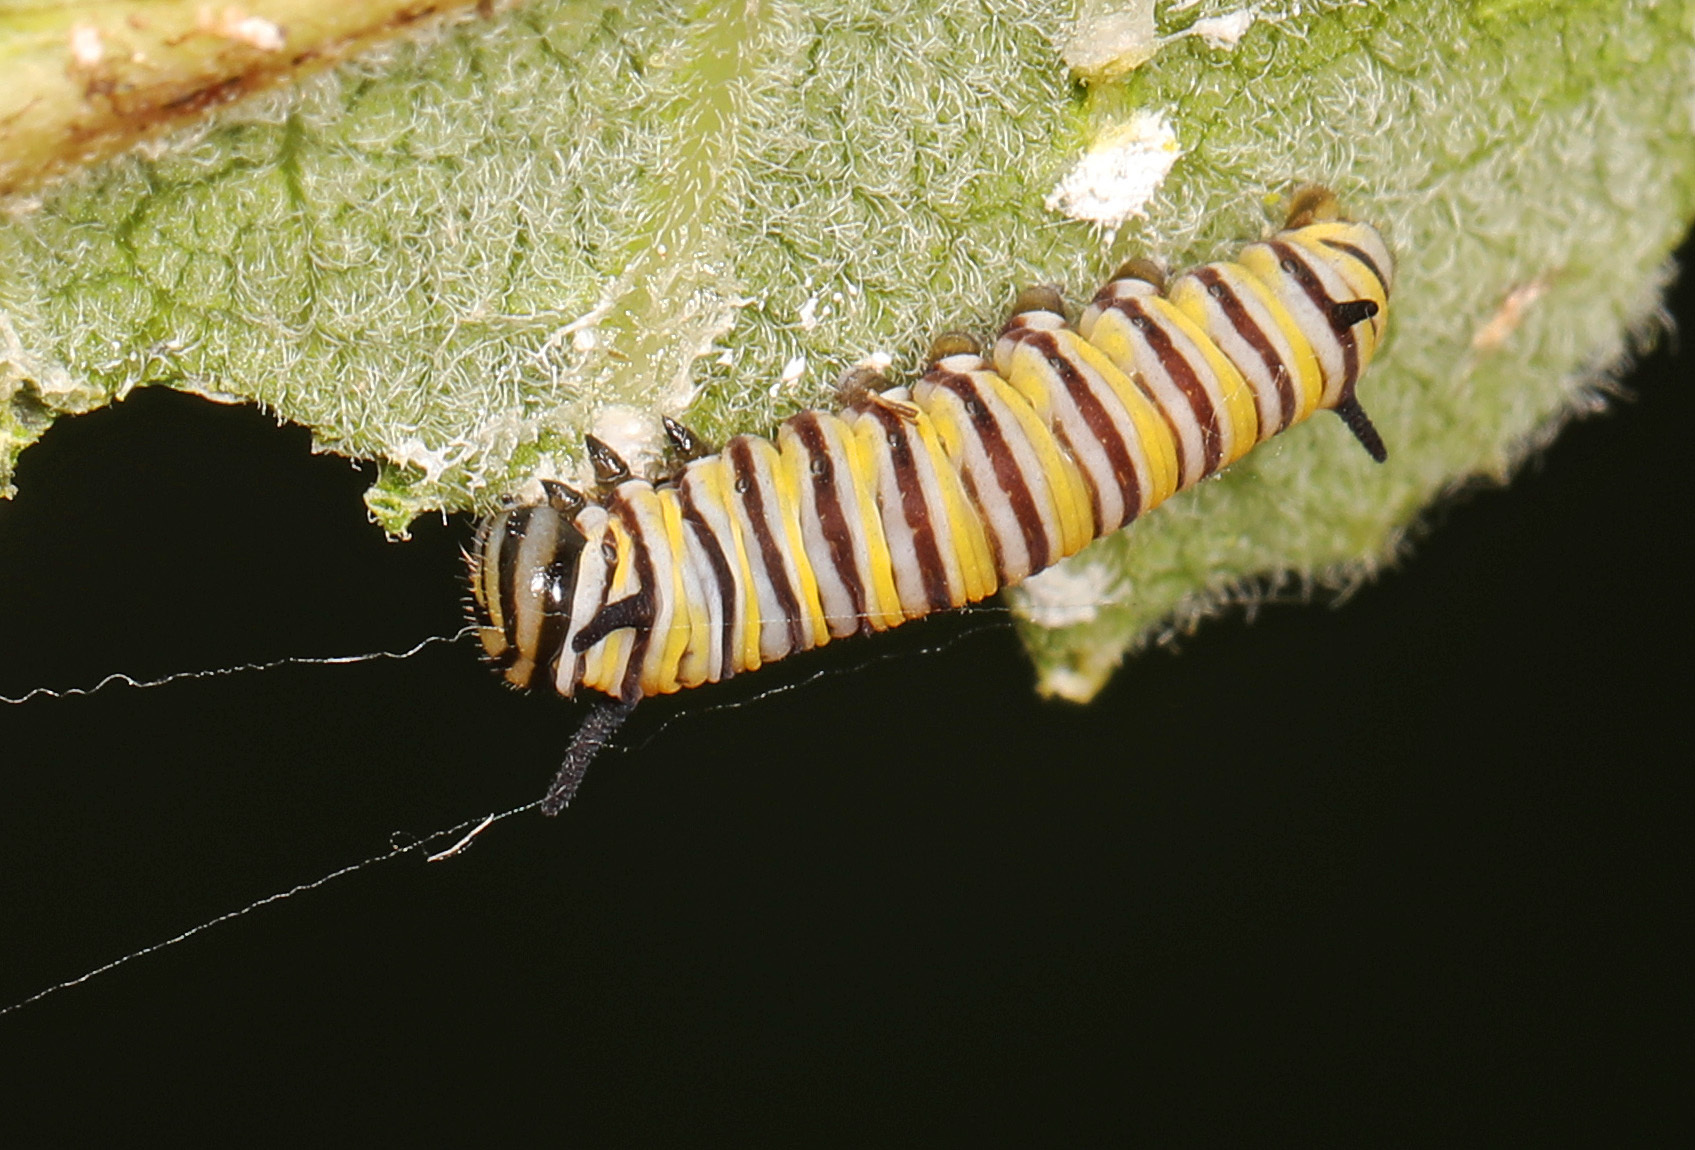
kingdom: Animalia
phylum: Arthropoda
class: Insecta
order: Lepidoptera
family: Nymphalidae
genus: Danaus
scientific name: Danaus plexippus
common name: Monarch
